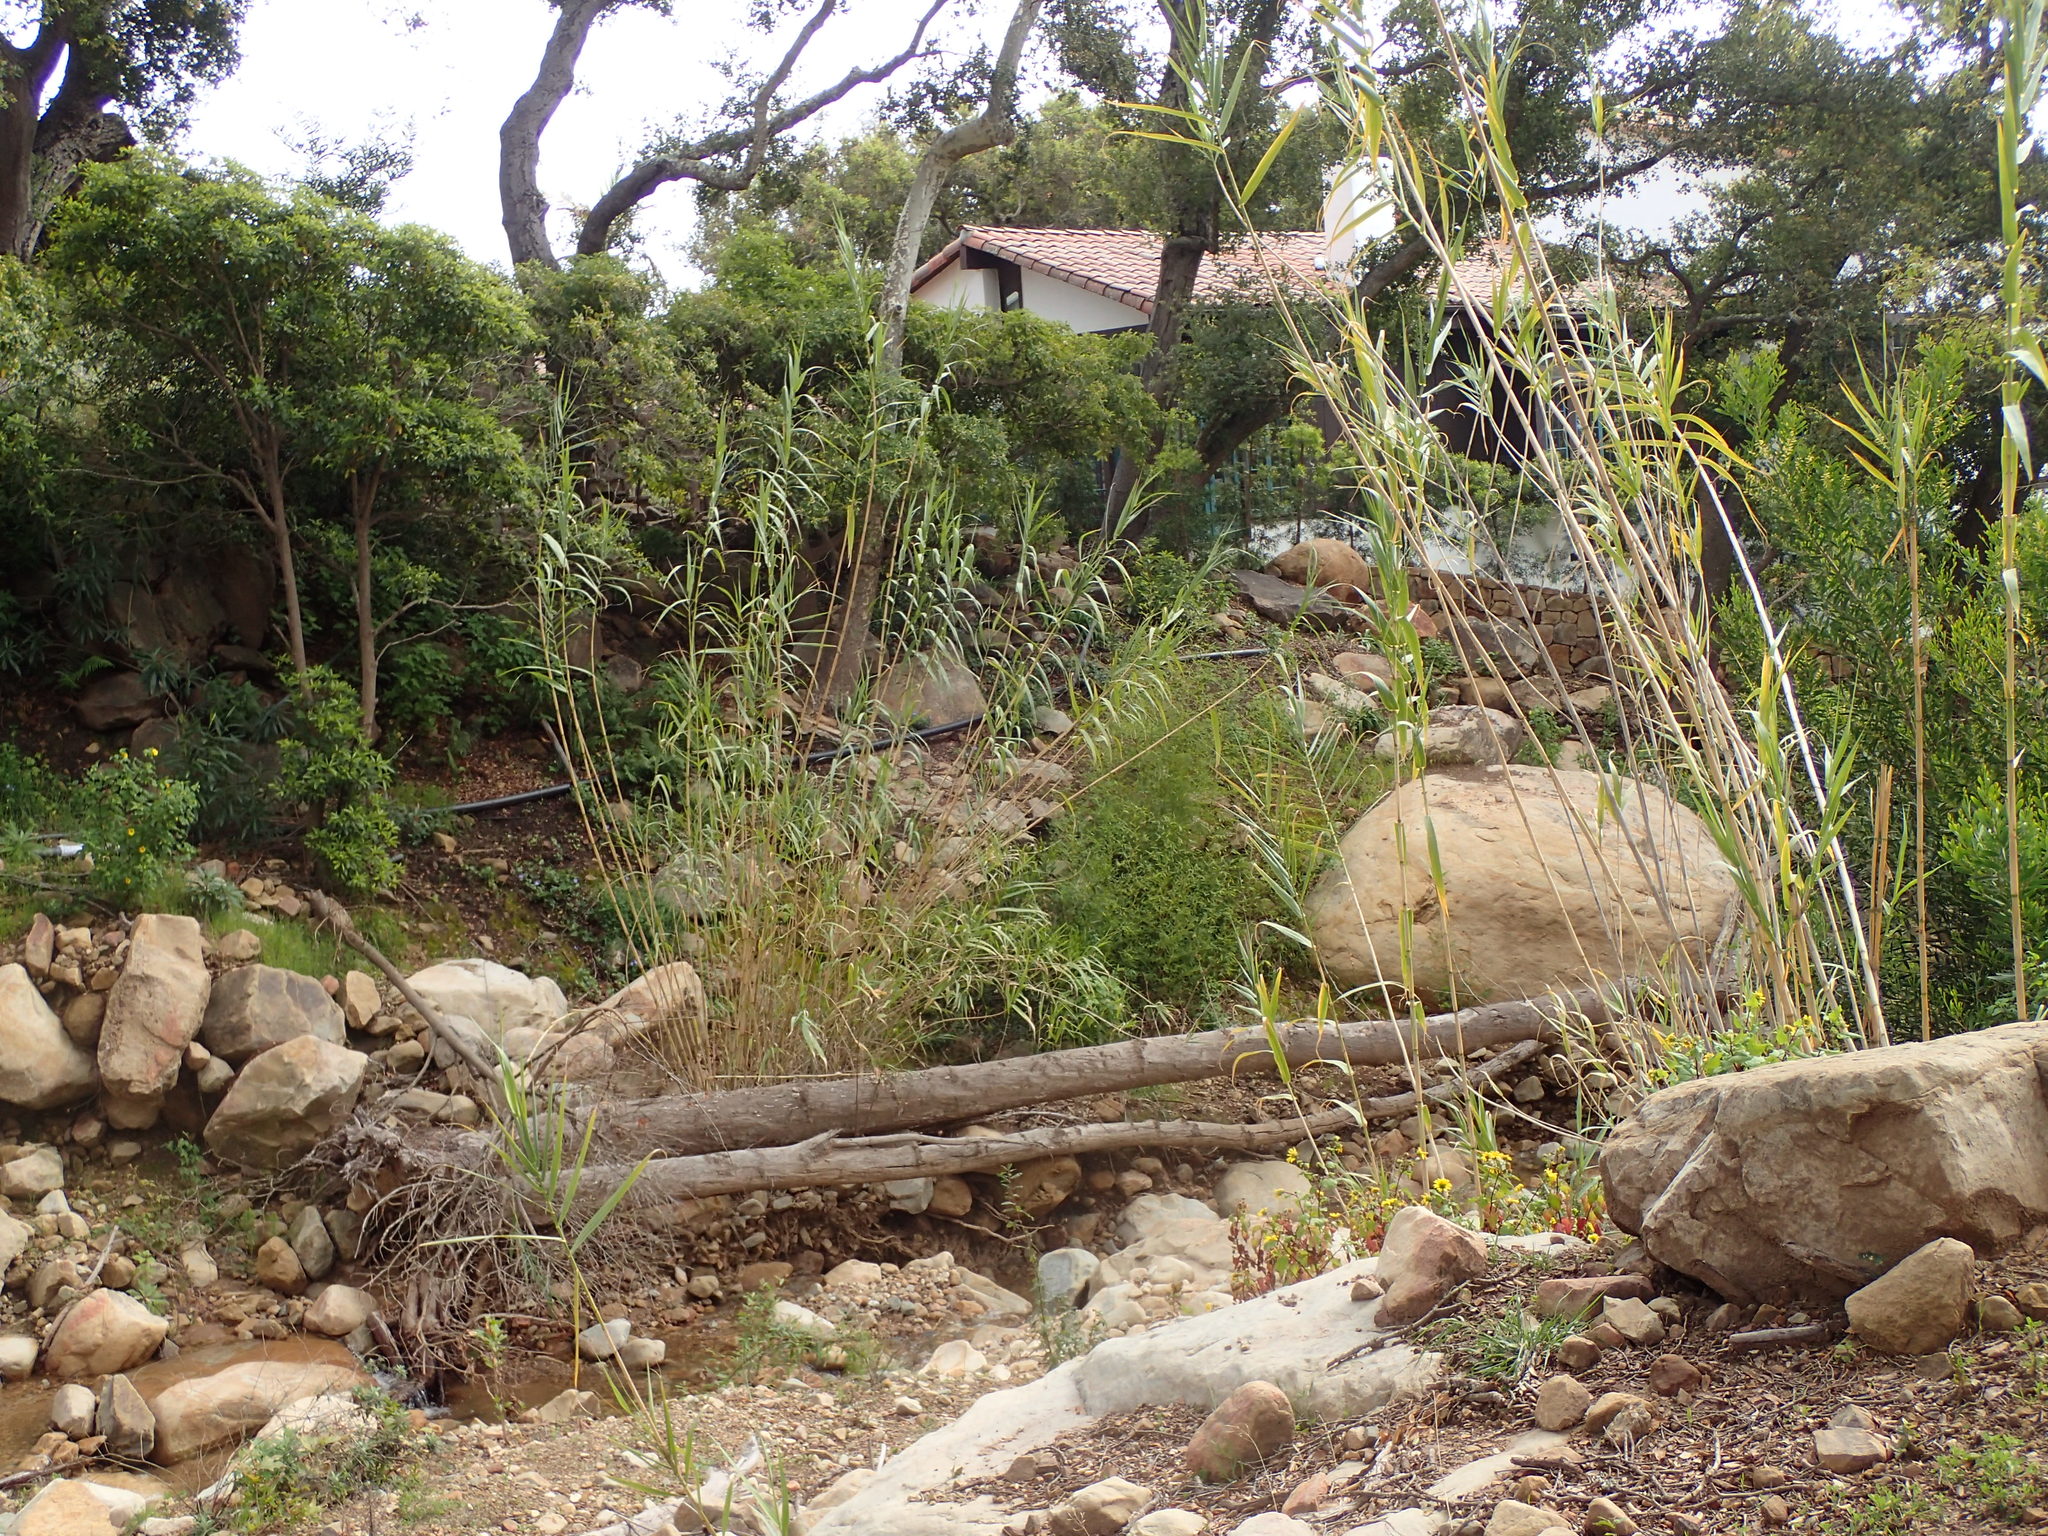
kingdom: Plantae
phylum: Tracheophyta
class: Liliopsida
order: Poales
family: Poaceae
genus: Arundo
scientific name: Arundo donax
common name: Giant reed
